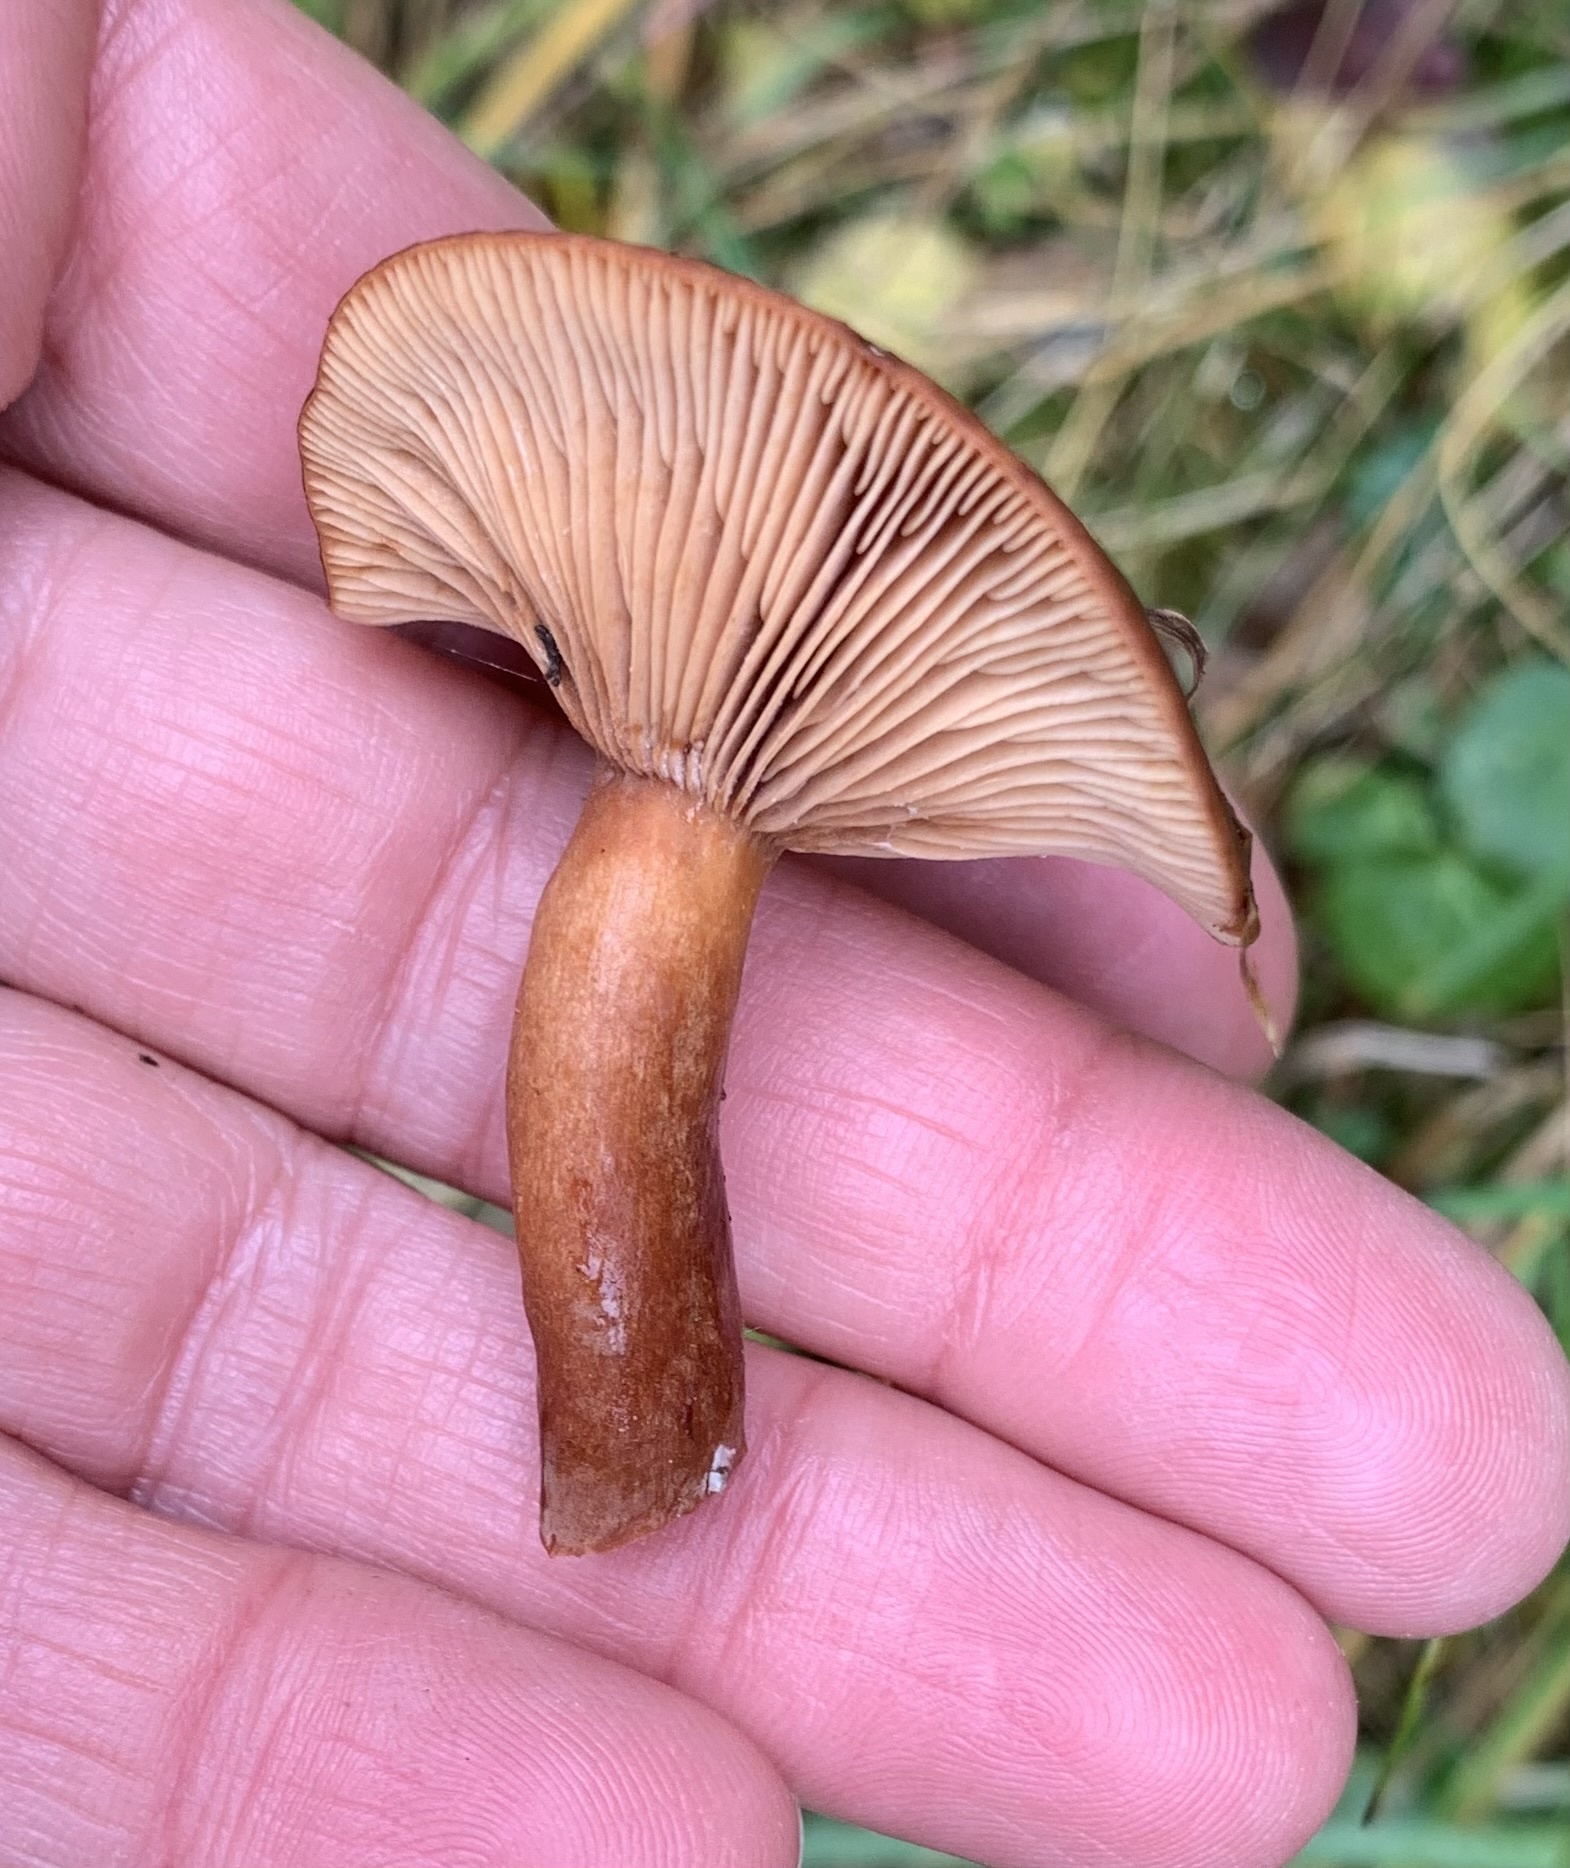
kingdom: Fungi
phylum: Basidiomycota
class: Agaricomycetes
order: Russulales
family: Russulaceae
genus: Lactarius
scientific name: Lactarius rufus
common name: Rufous milk-cap
